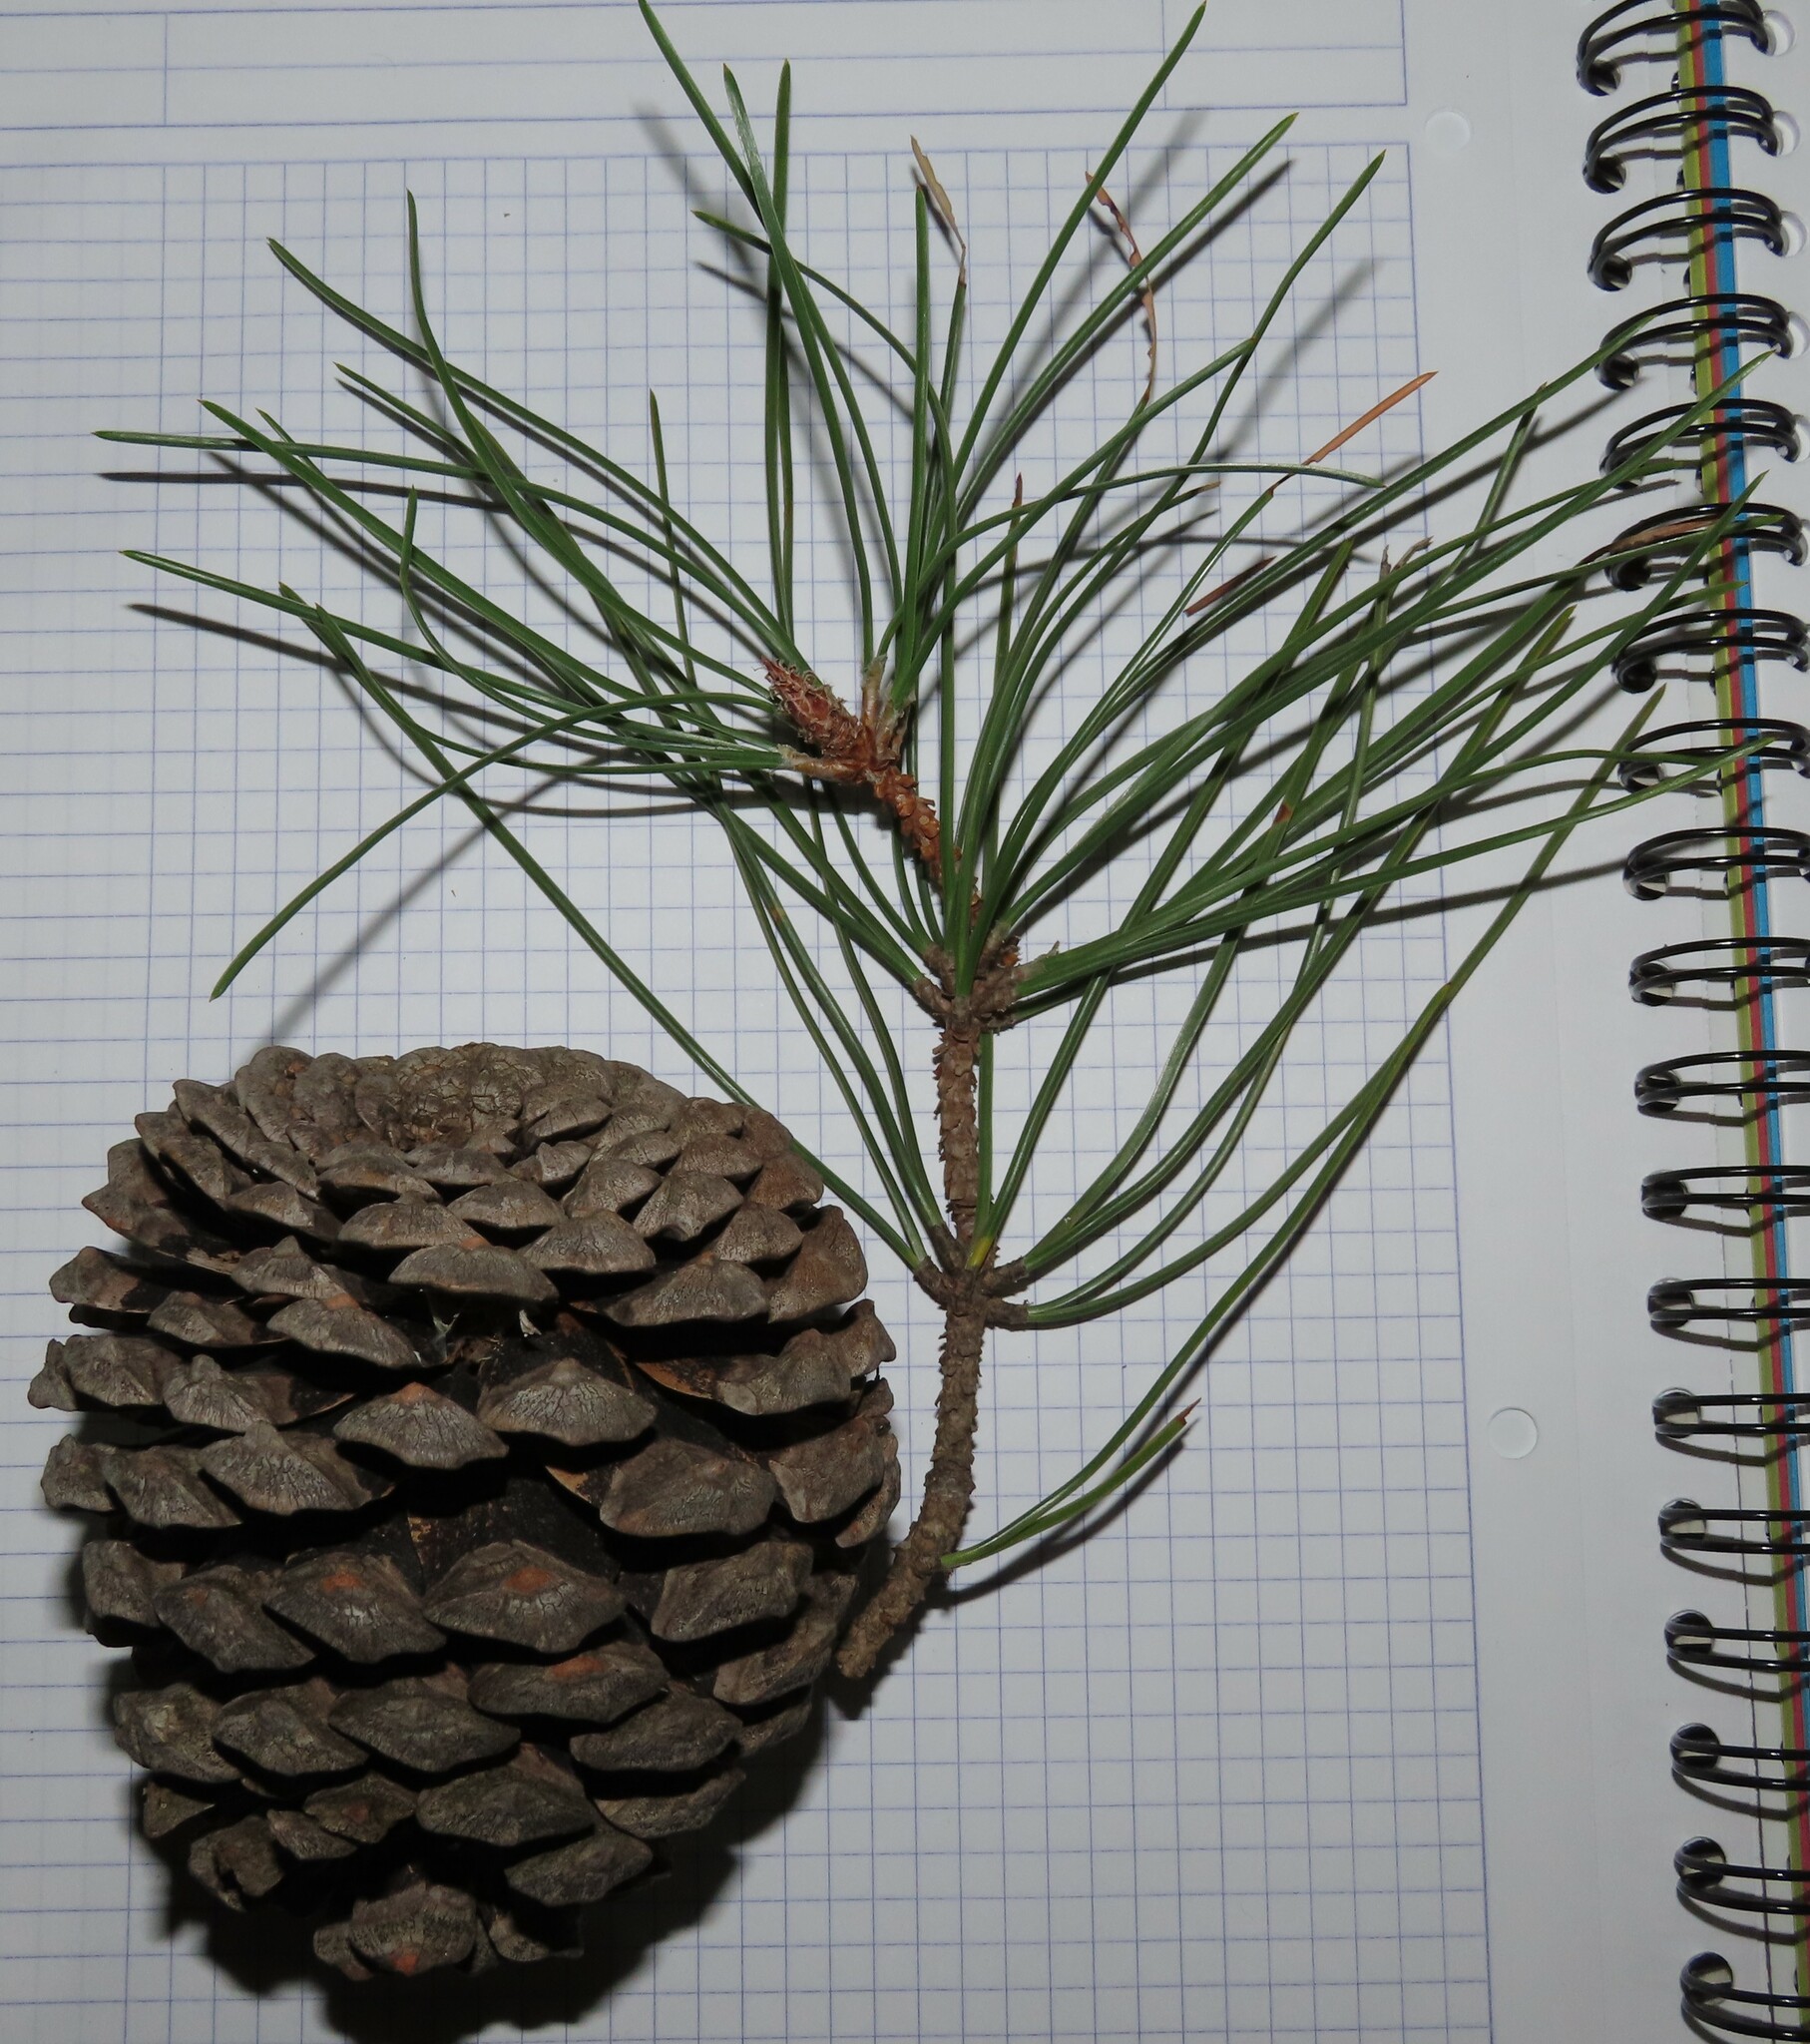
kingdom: Plantae
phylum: Tracheophyta
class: Pinopsida
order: Pinales
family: Pinaceae
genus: Pinus
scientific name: Pinus pinaster
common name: Maritime pine
